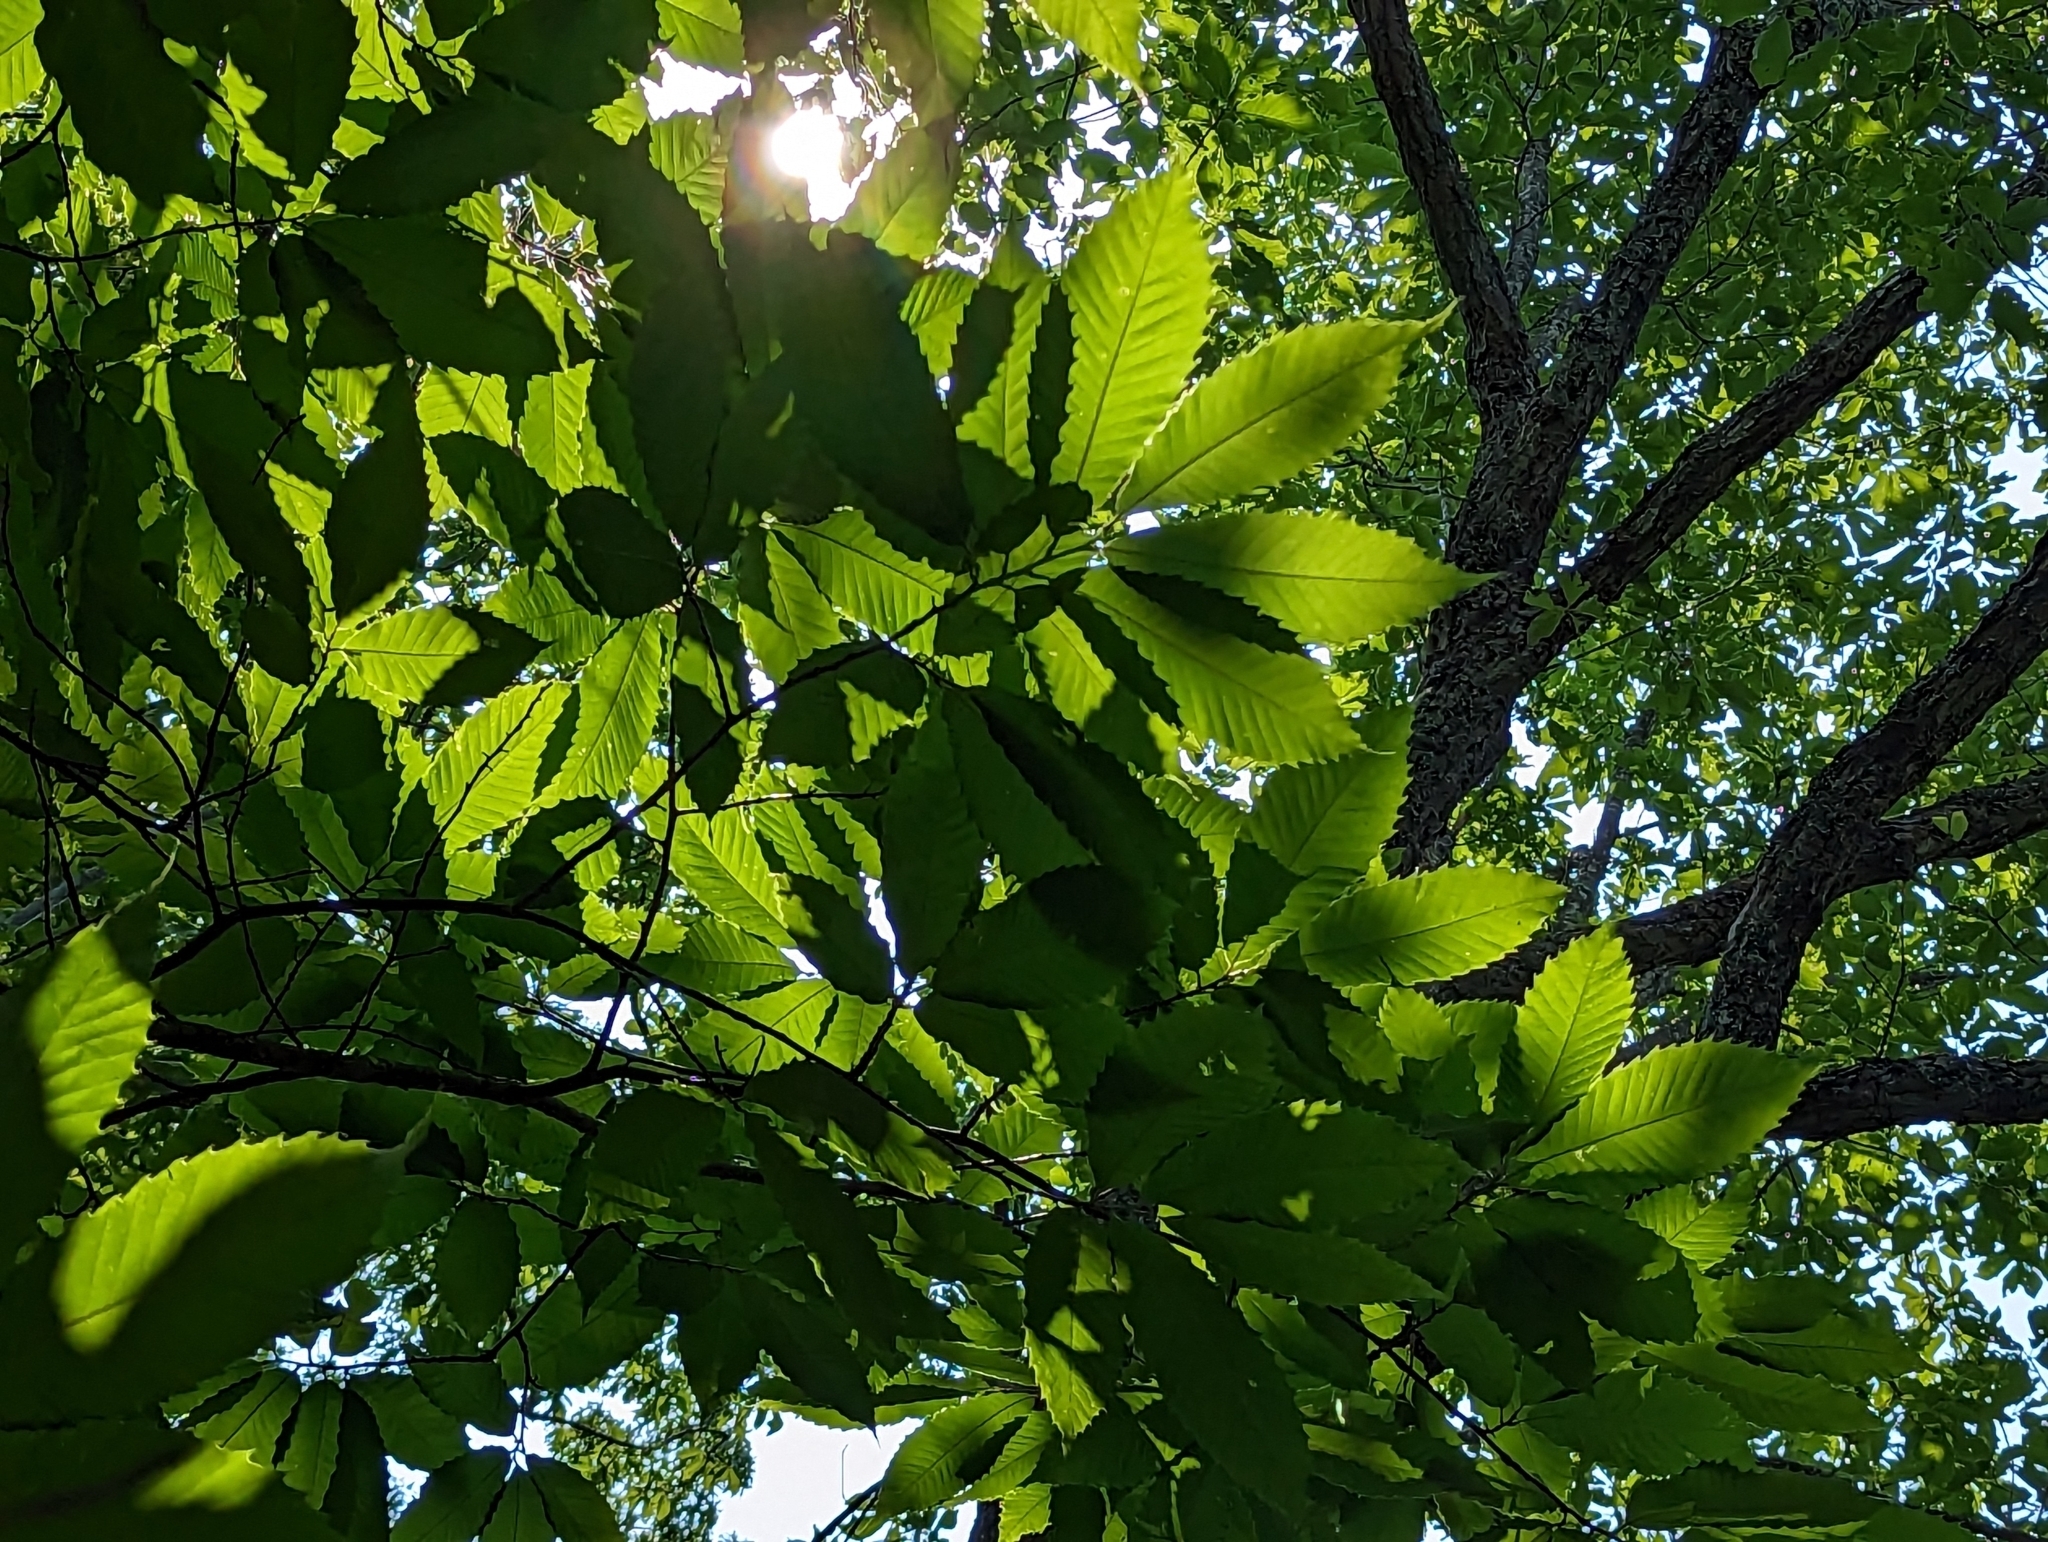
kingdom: Plantae
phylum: Tracheophyta
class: Magnoliopsida
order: Fagales
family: Fagaceae
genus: Castanea
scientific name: Castanea dentata
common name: American chestnut
